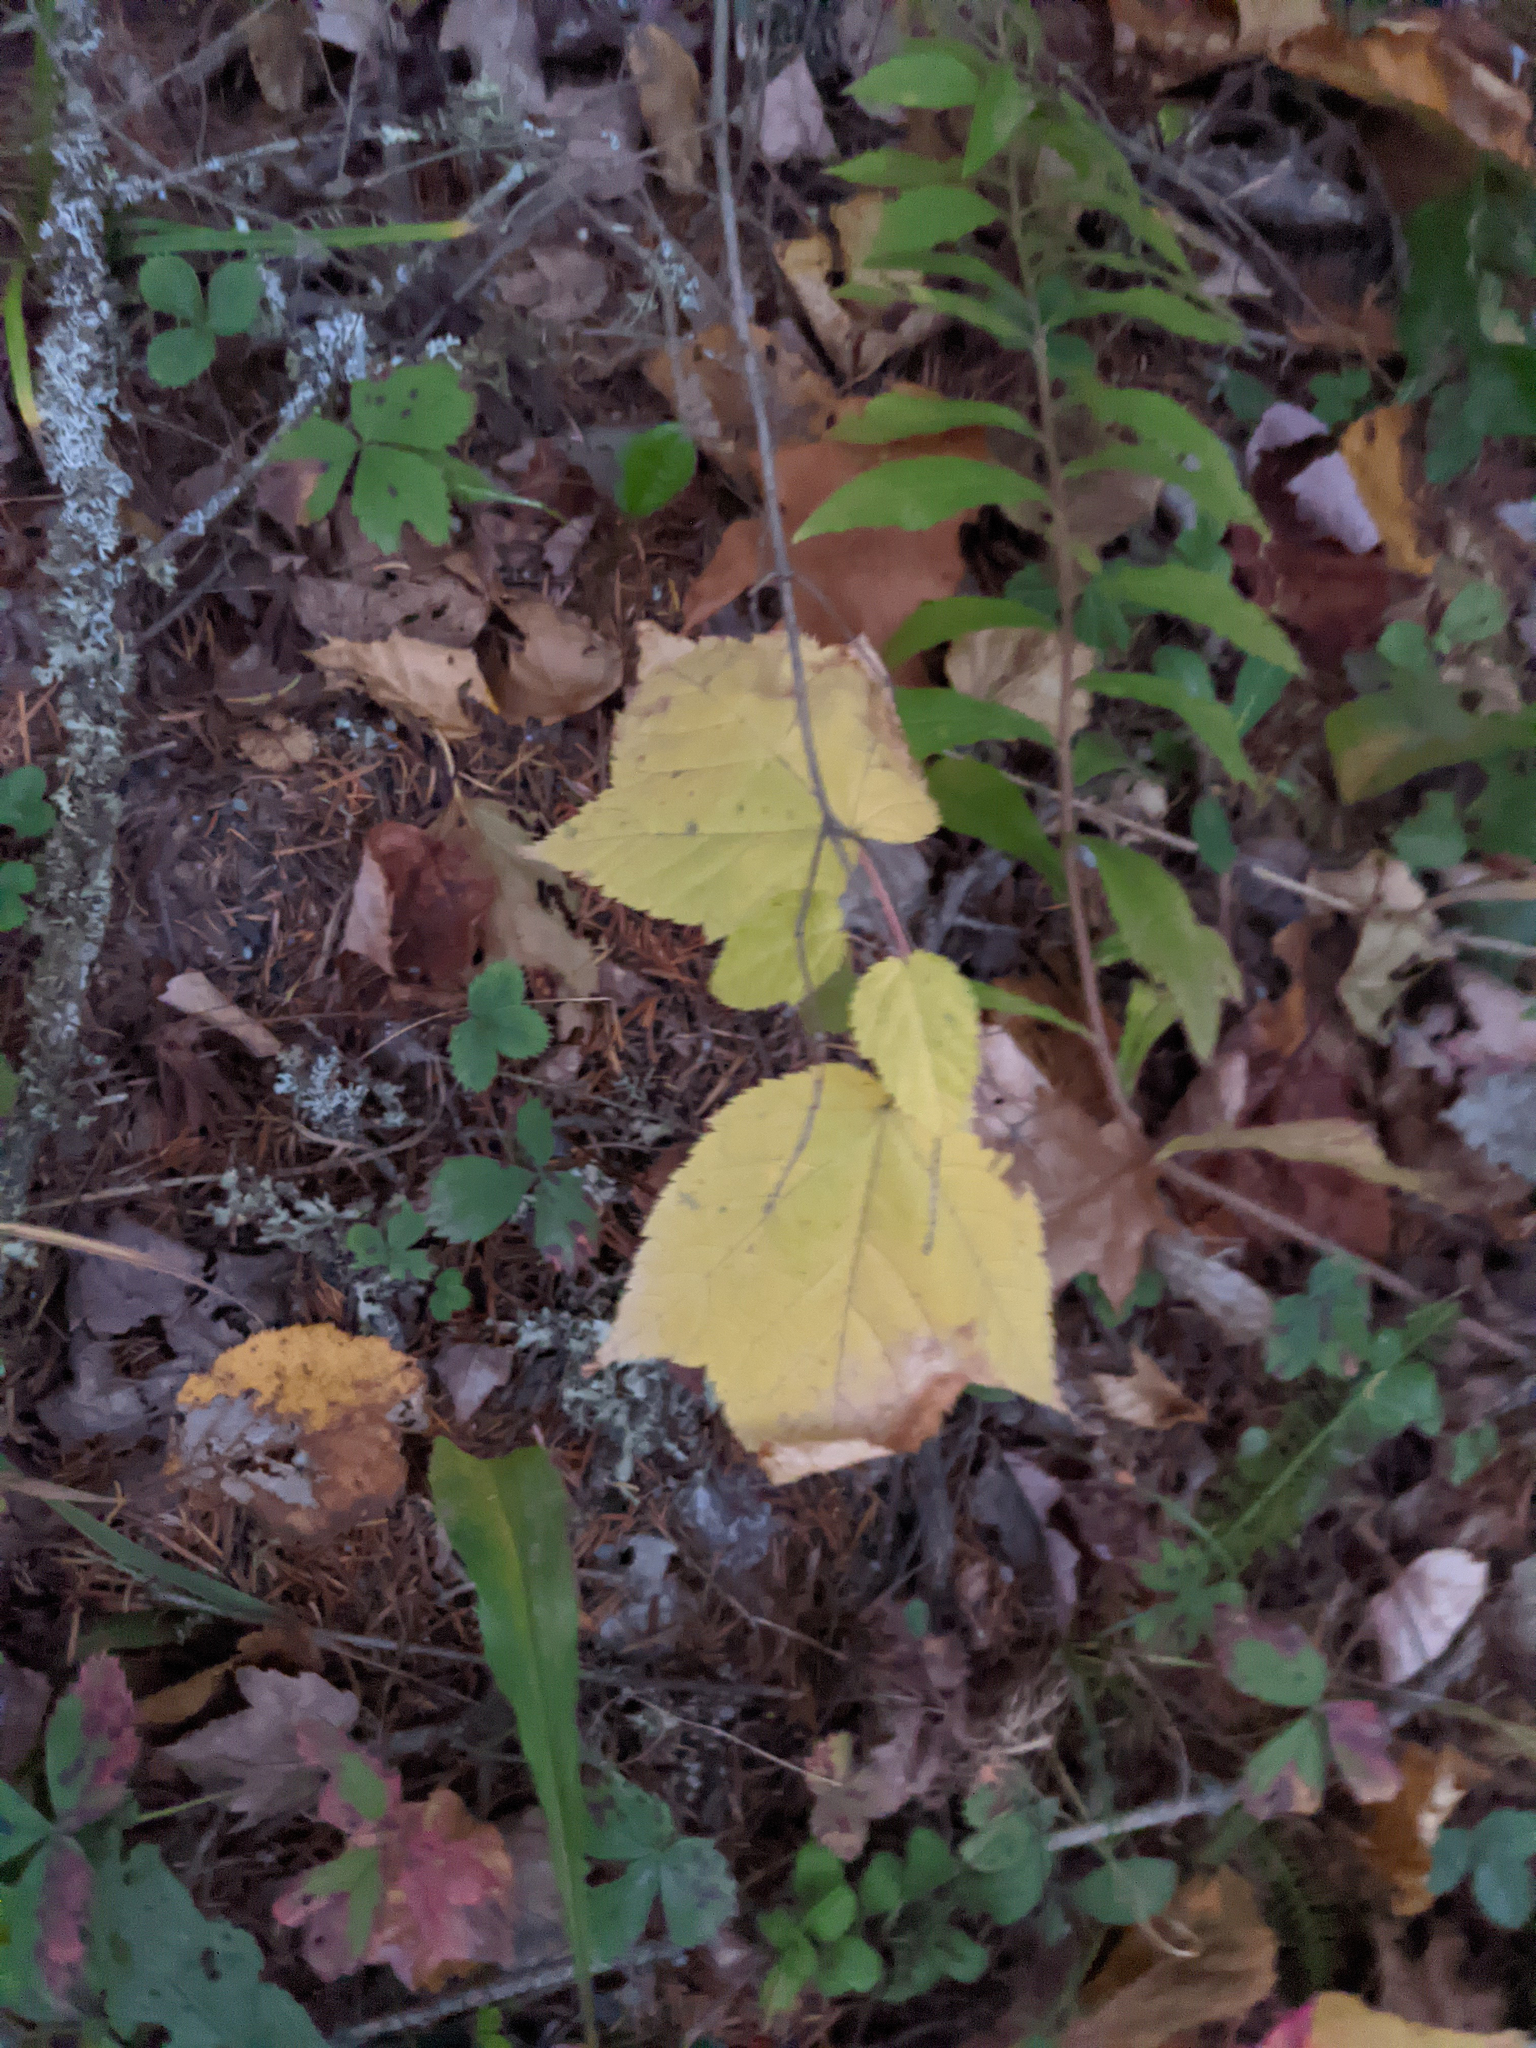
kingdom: Plantae
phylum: Tracheophyta
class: Magnoliopsida
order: Sapindales
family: Sapindaceae
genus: Acer
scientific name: Acer pensylvanicum
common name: Moosewood
